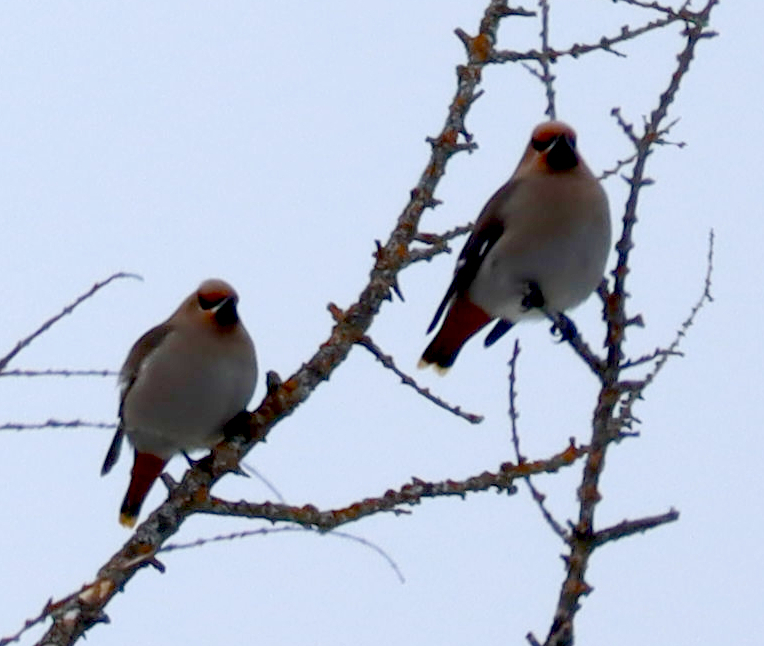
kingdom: Animalia
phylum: Chordata
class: Aves
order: Passeriformes
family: Bombycillidae
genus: Bombycilla
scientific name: Bombycilla garrulus
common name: Bohemian waxwing
